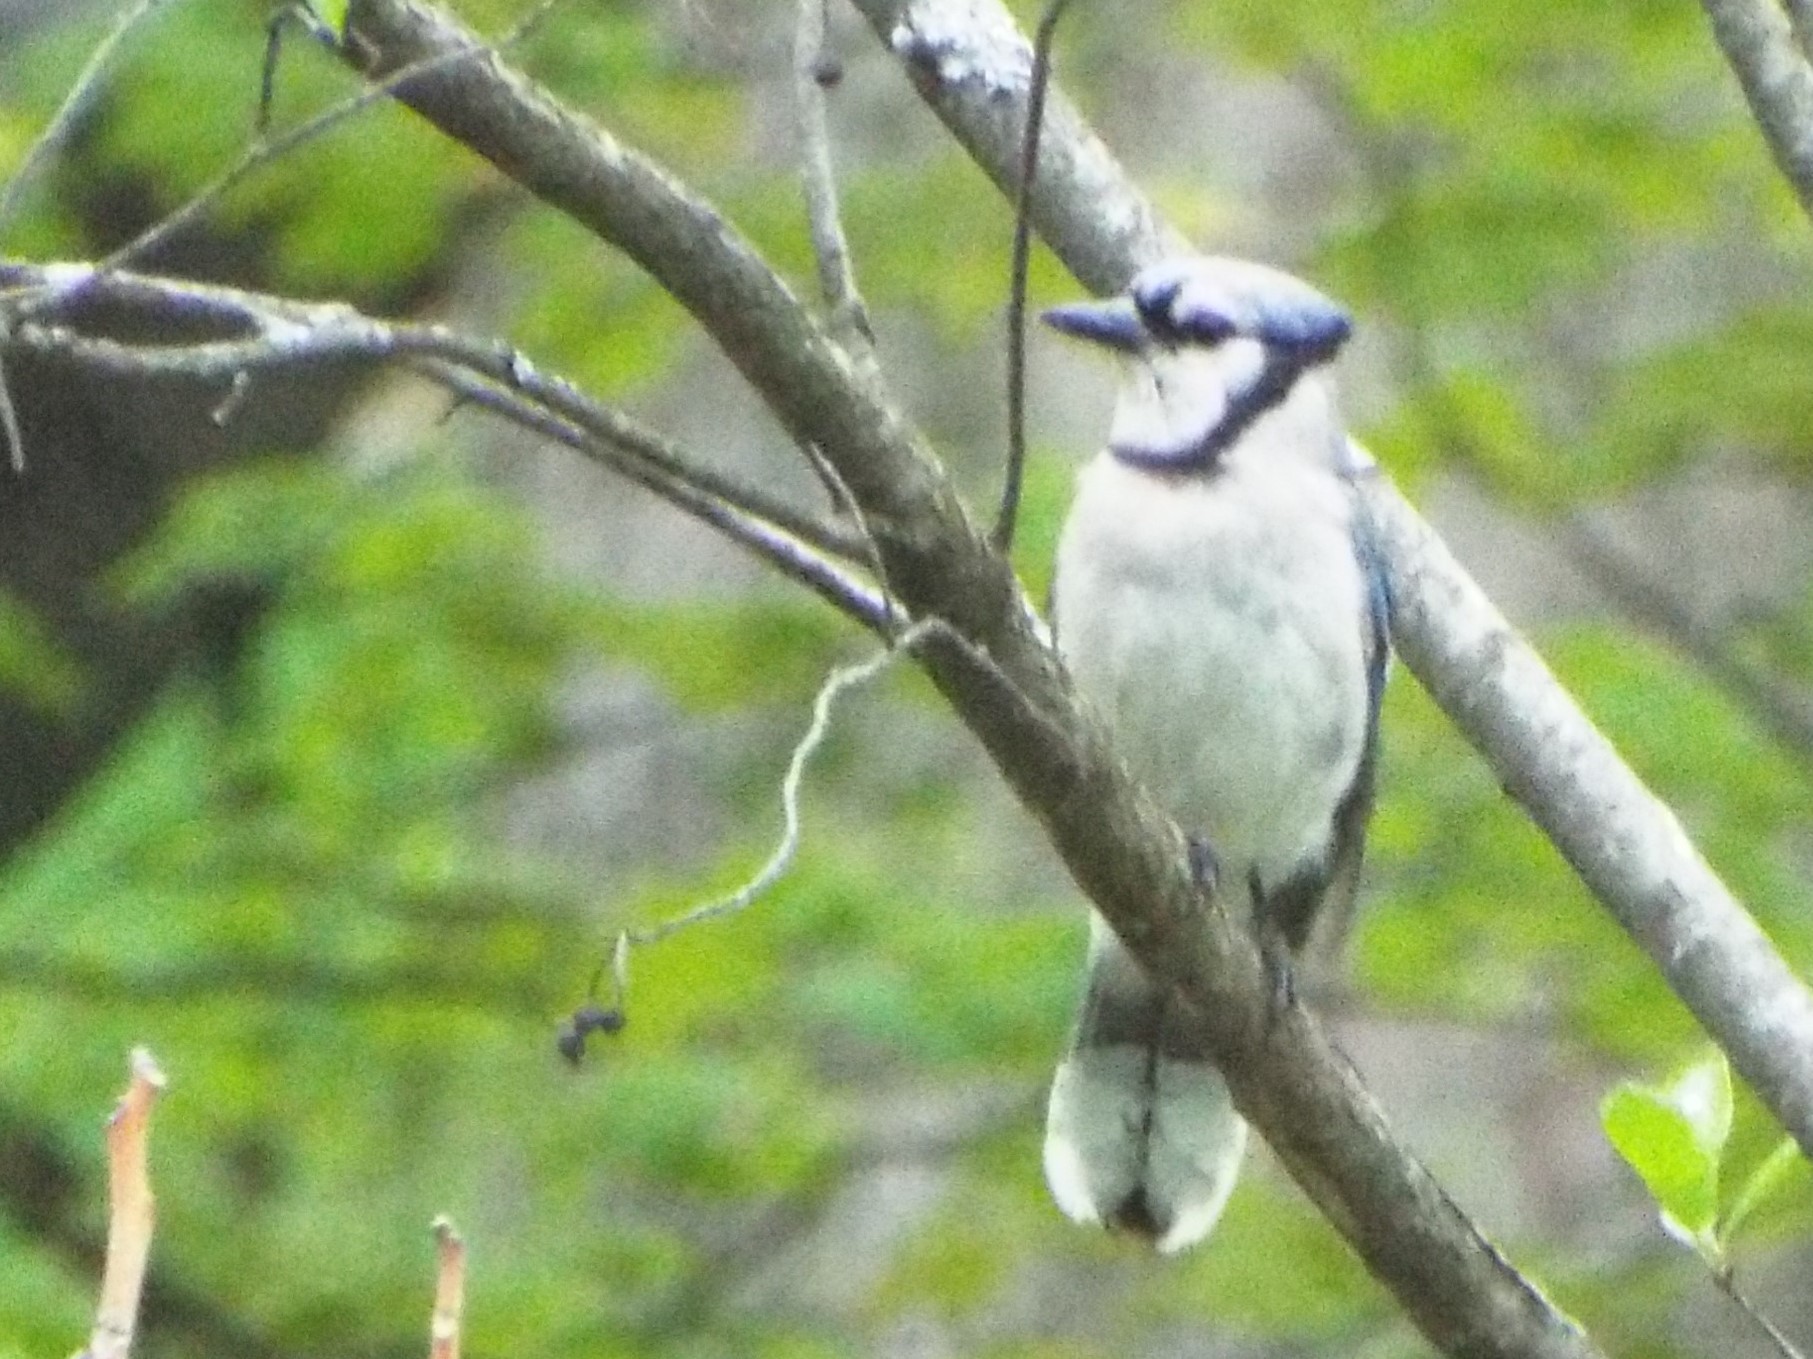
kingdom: Animalia
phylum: Chordata
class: Aves
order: Passeriformes
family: Corvidae
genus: Cyanocitta
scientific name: Cyanocitta cristata
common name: Blue jay
